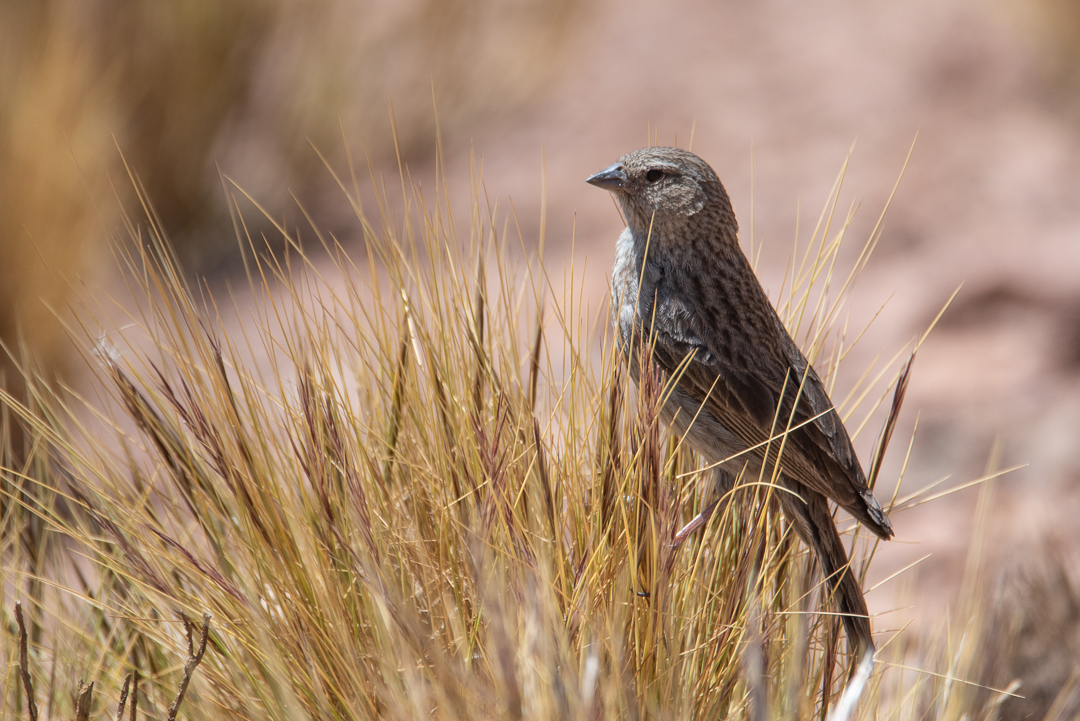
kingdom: Animalia
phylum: Chordata
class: Aves
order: Passeriformes
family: Thraupidae
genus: Geospizopsis
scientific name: Geospizopsis unicolor
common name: Plumbeous sierra-finch
